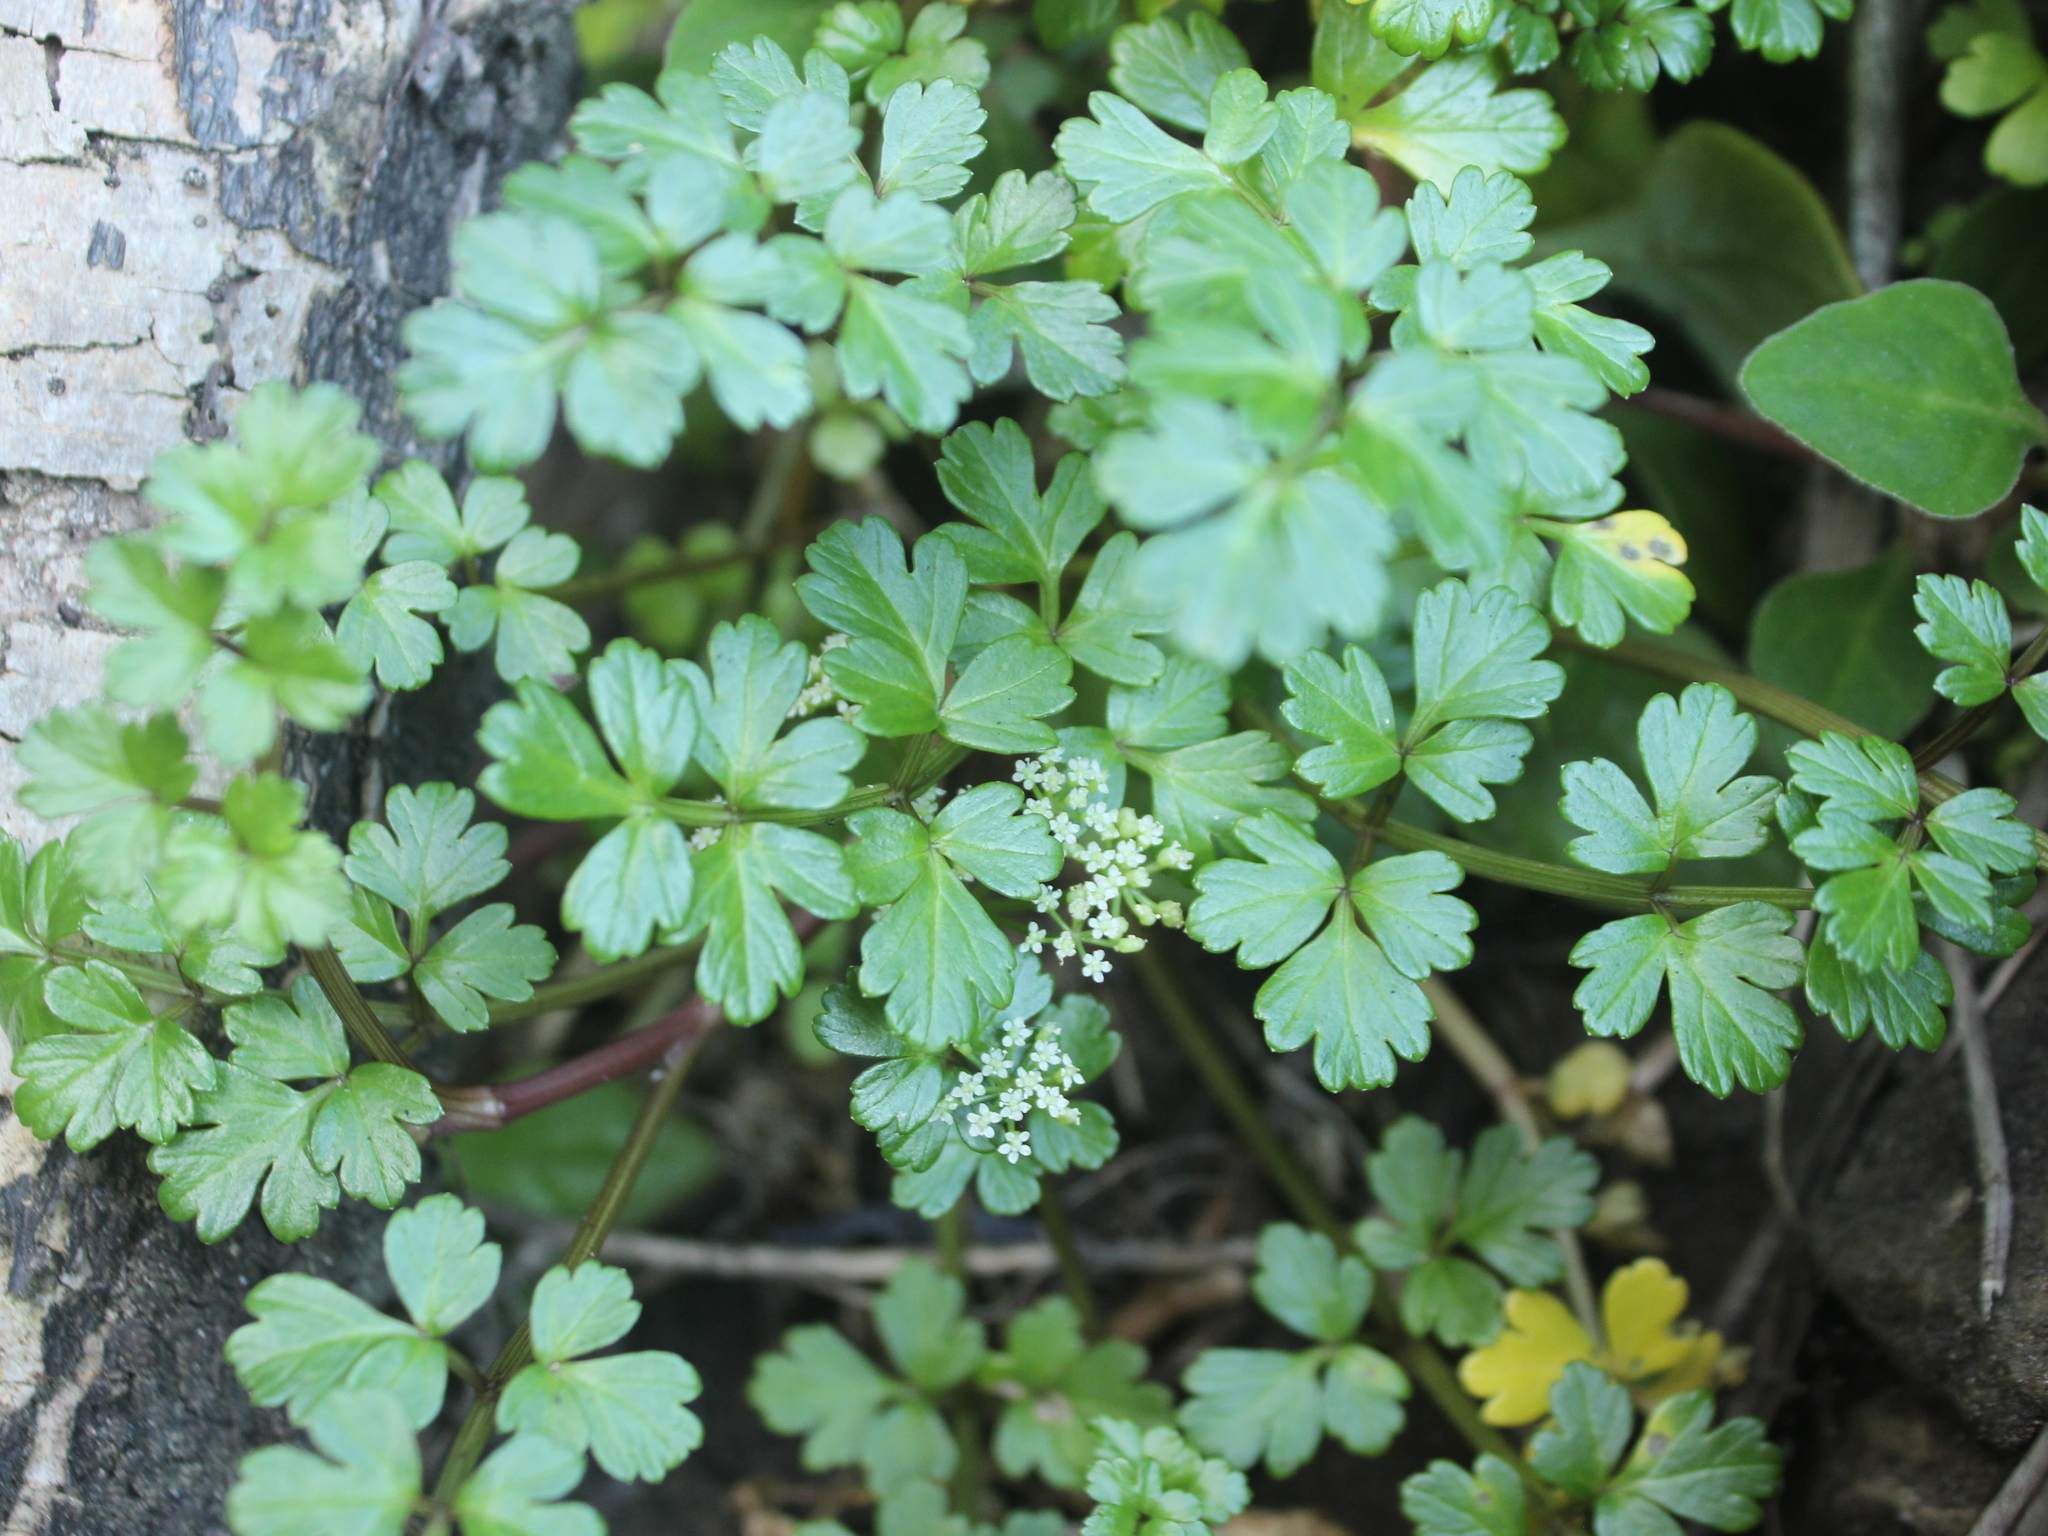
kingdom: Plantae
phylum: Tracheophyta
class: Magnoliopsida
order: Apiales
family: Apiaceae
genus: Apium
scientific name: Apium prostratum
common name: Prostrate marshwort
